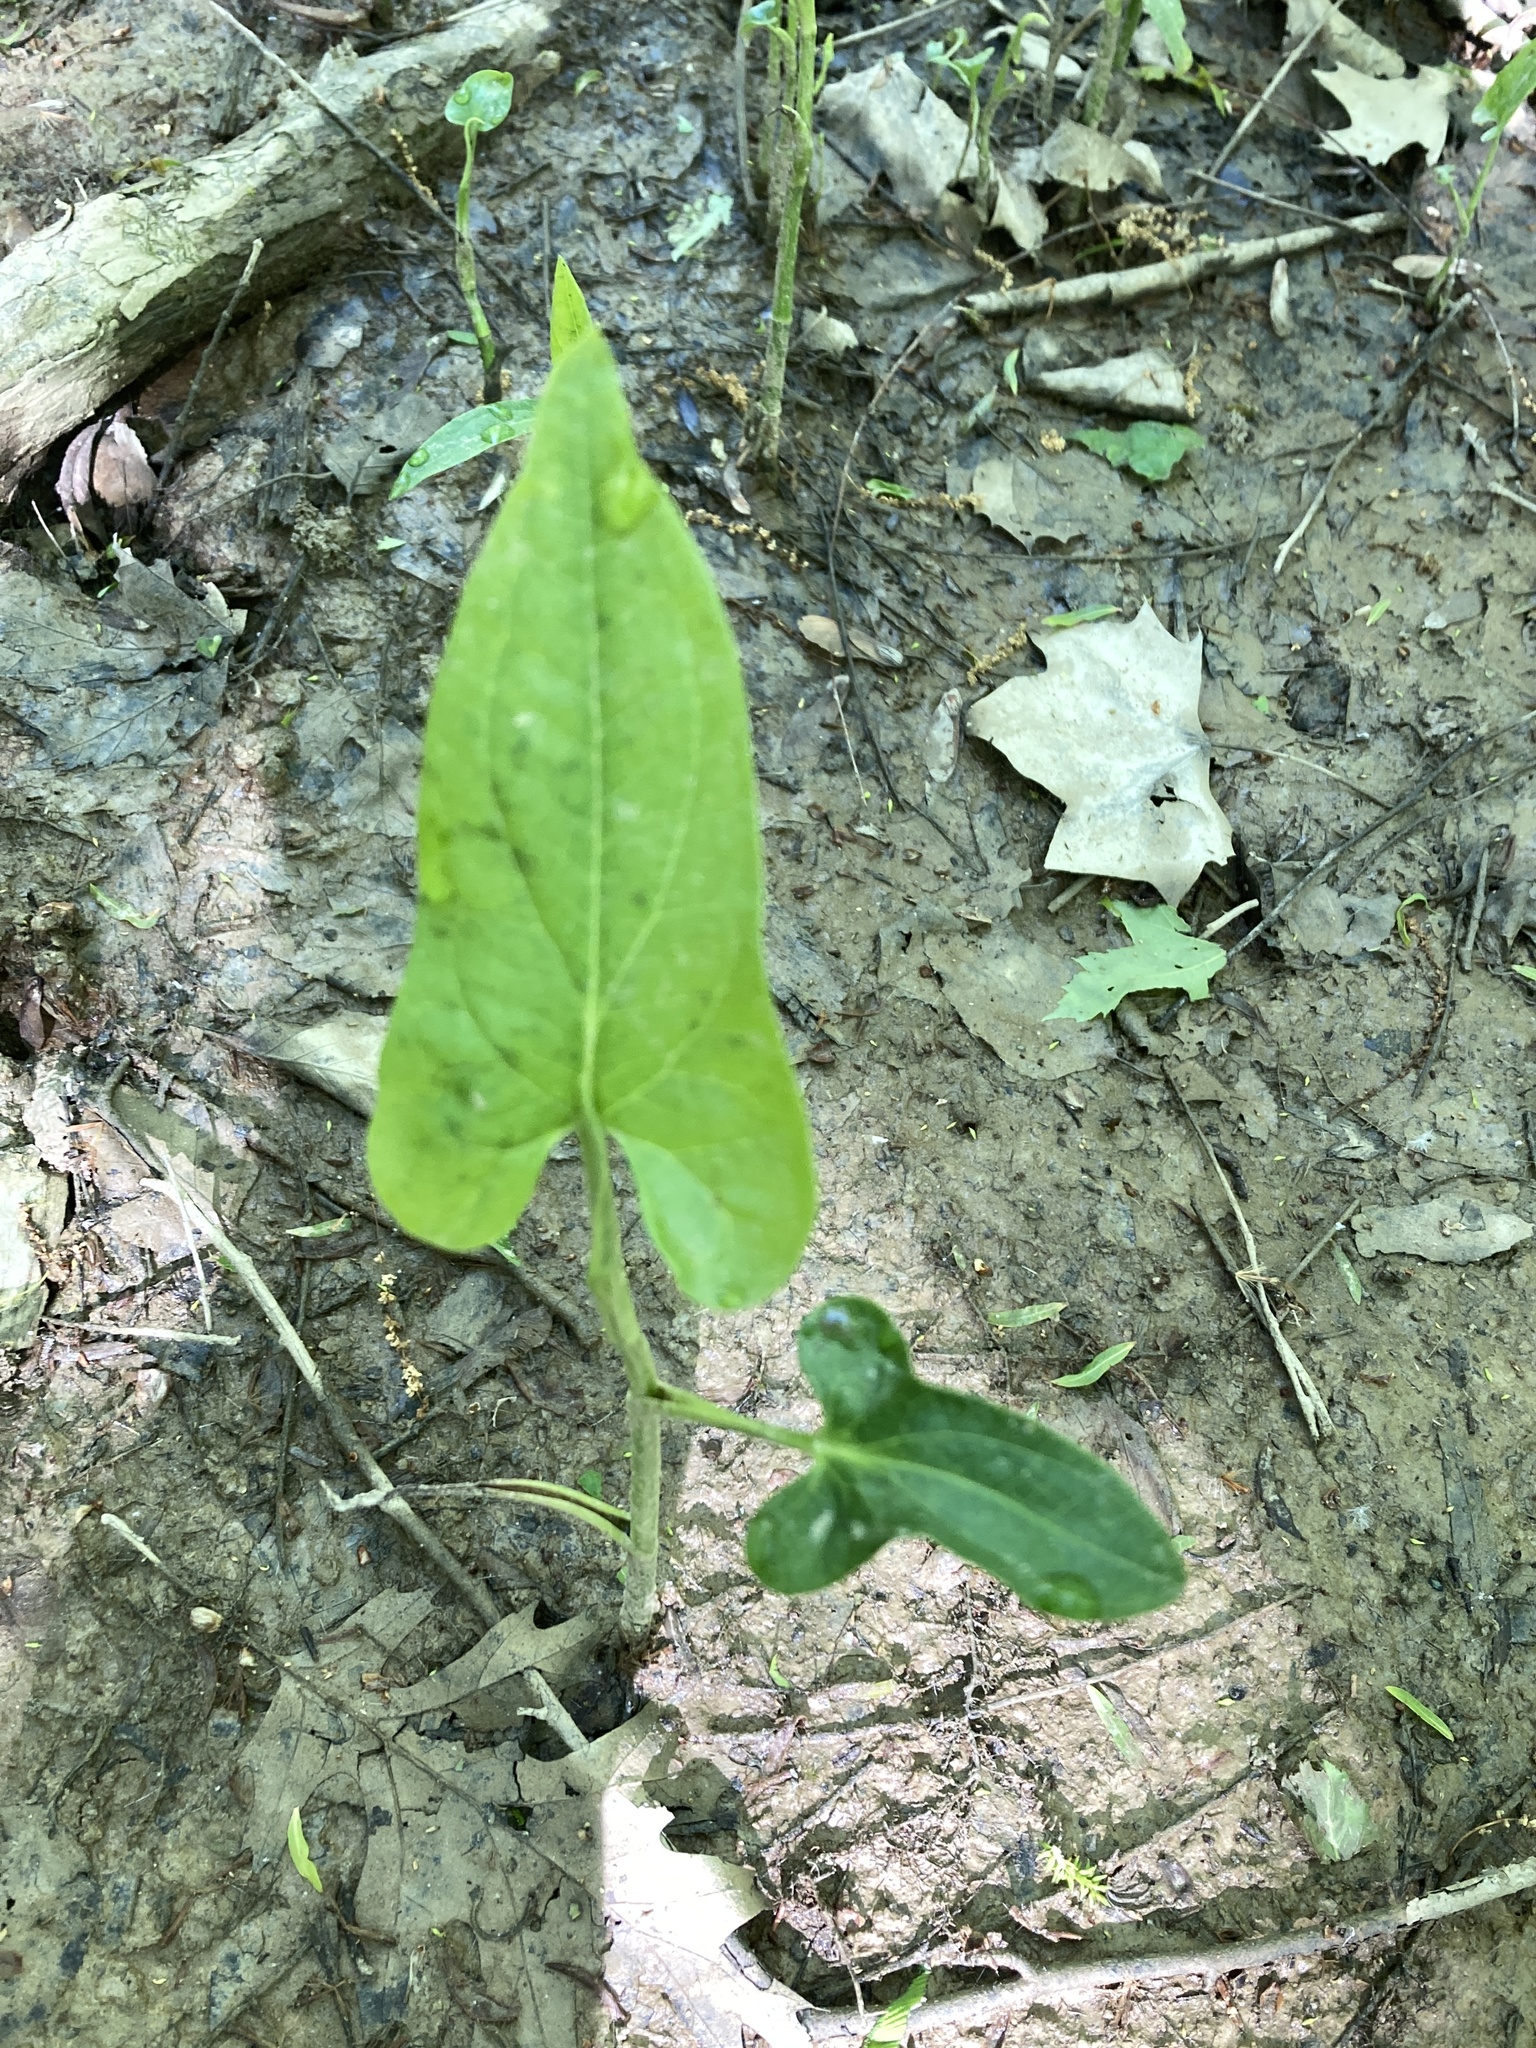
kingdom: Plantae
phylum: Tracheophyta
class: Magnoliopsida
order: Piperales
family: Saururaceae
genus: Saururus
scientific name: Saururus cernuus
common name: Lizard's-tail
